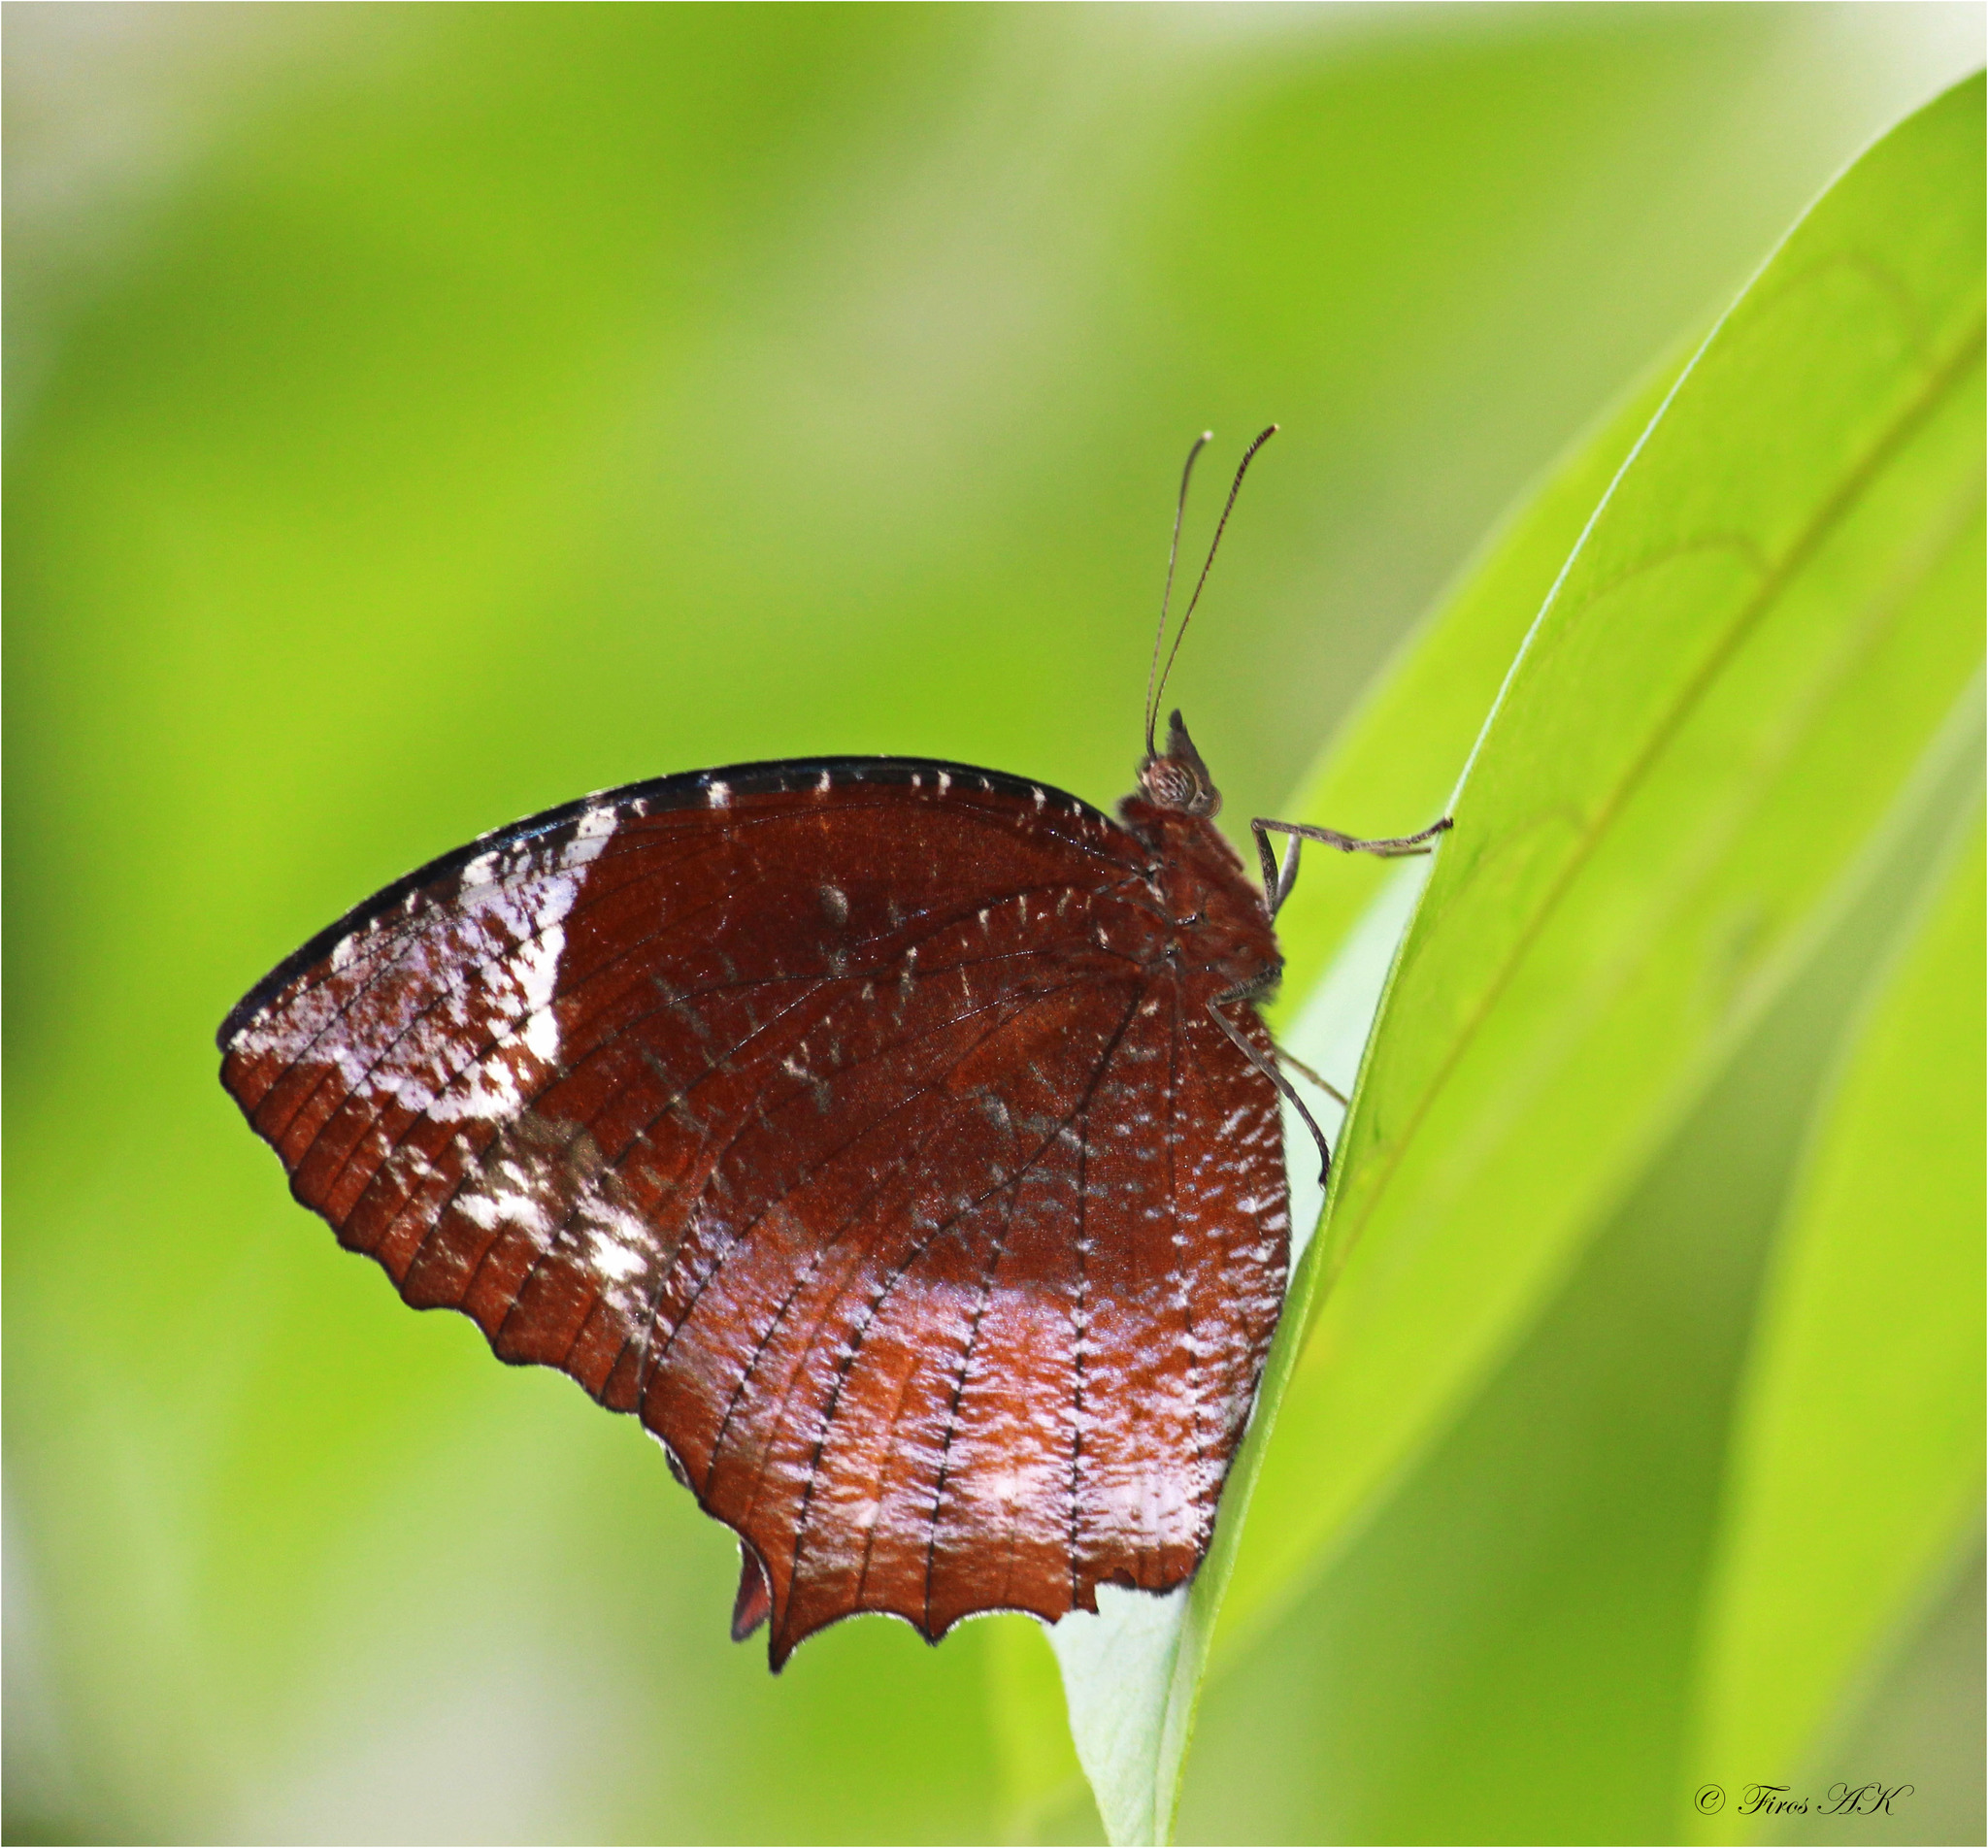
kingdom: Animalia
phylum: Arthropoda
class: Insecta
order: Lepidoptera
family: Nymphalidae
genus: Elymnias
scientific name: Elymnias caudata
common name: Tailed palmfly
